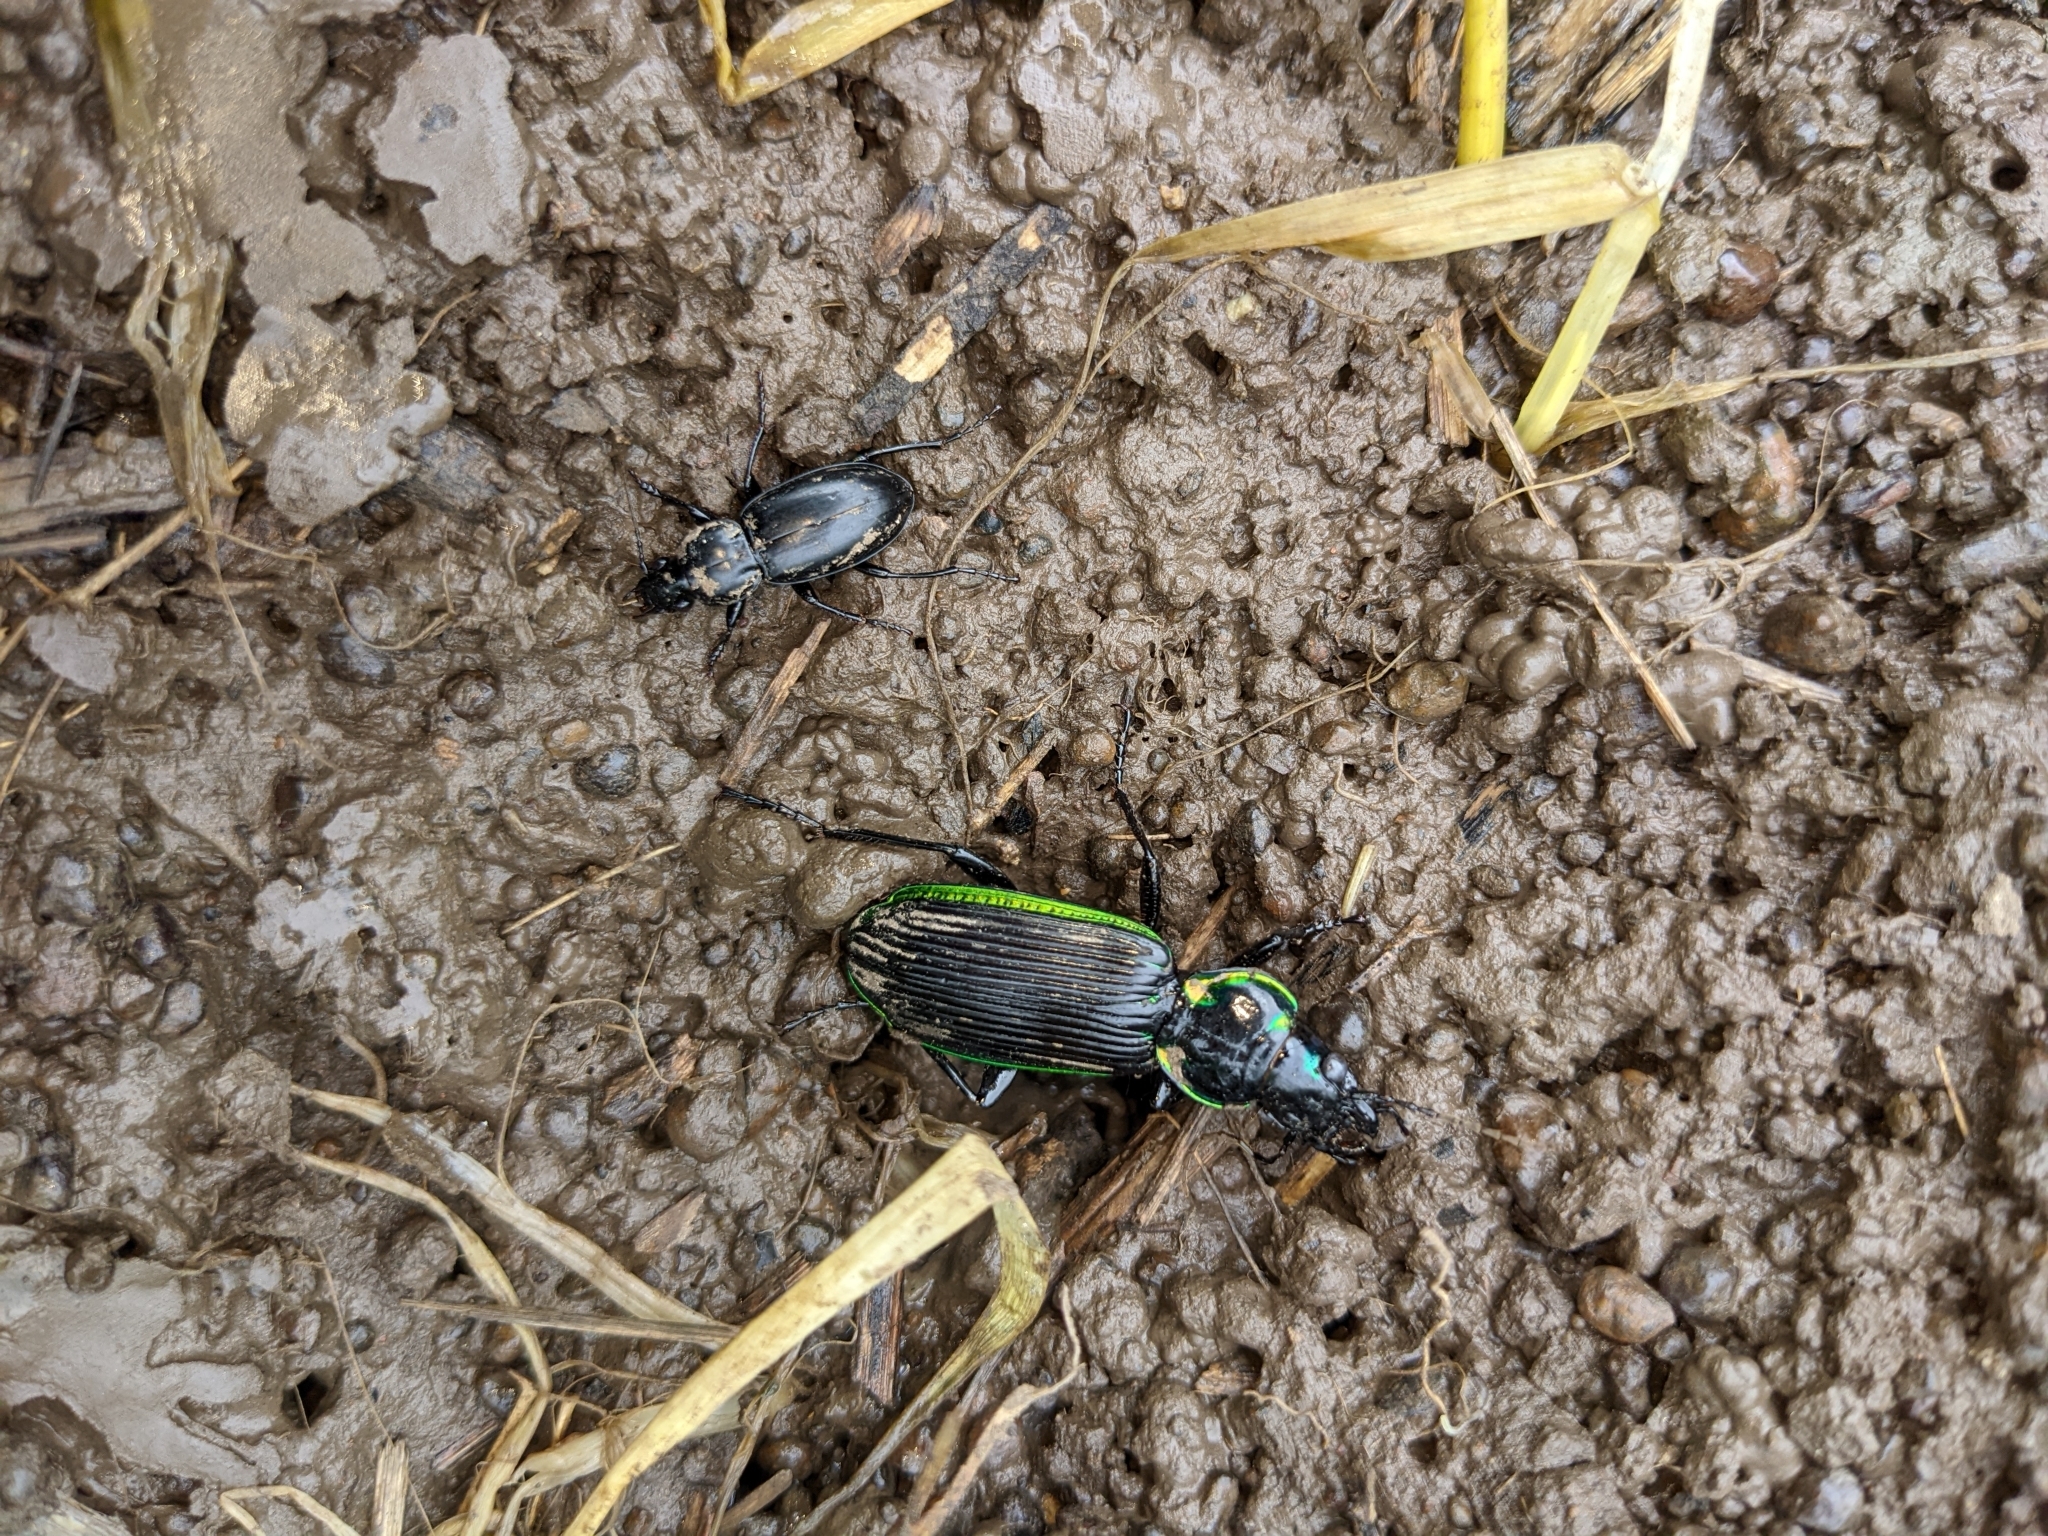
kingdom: Animalia
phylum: Arthropoda
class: Insecta
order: Coleoptera
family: Carabidae
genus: Catadromus
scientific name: Catadromus lacordairei
